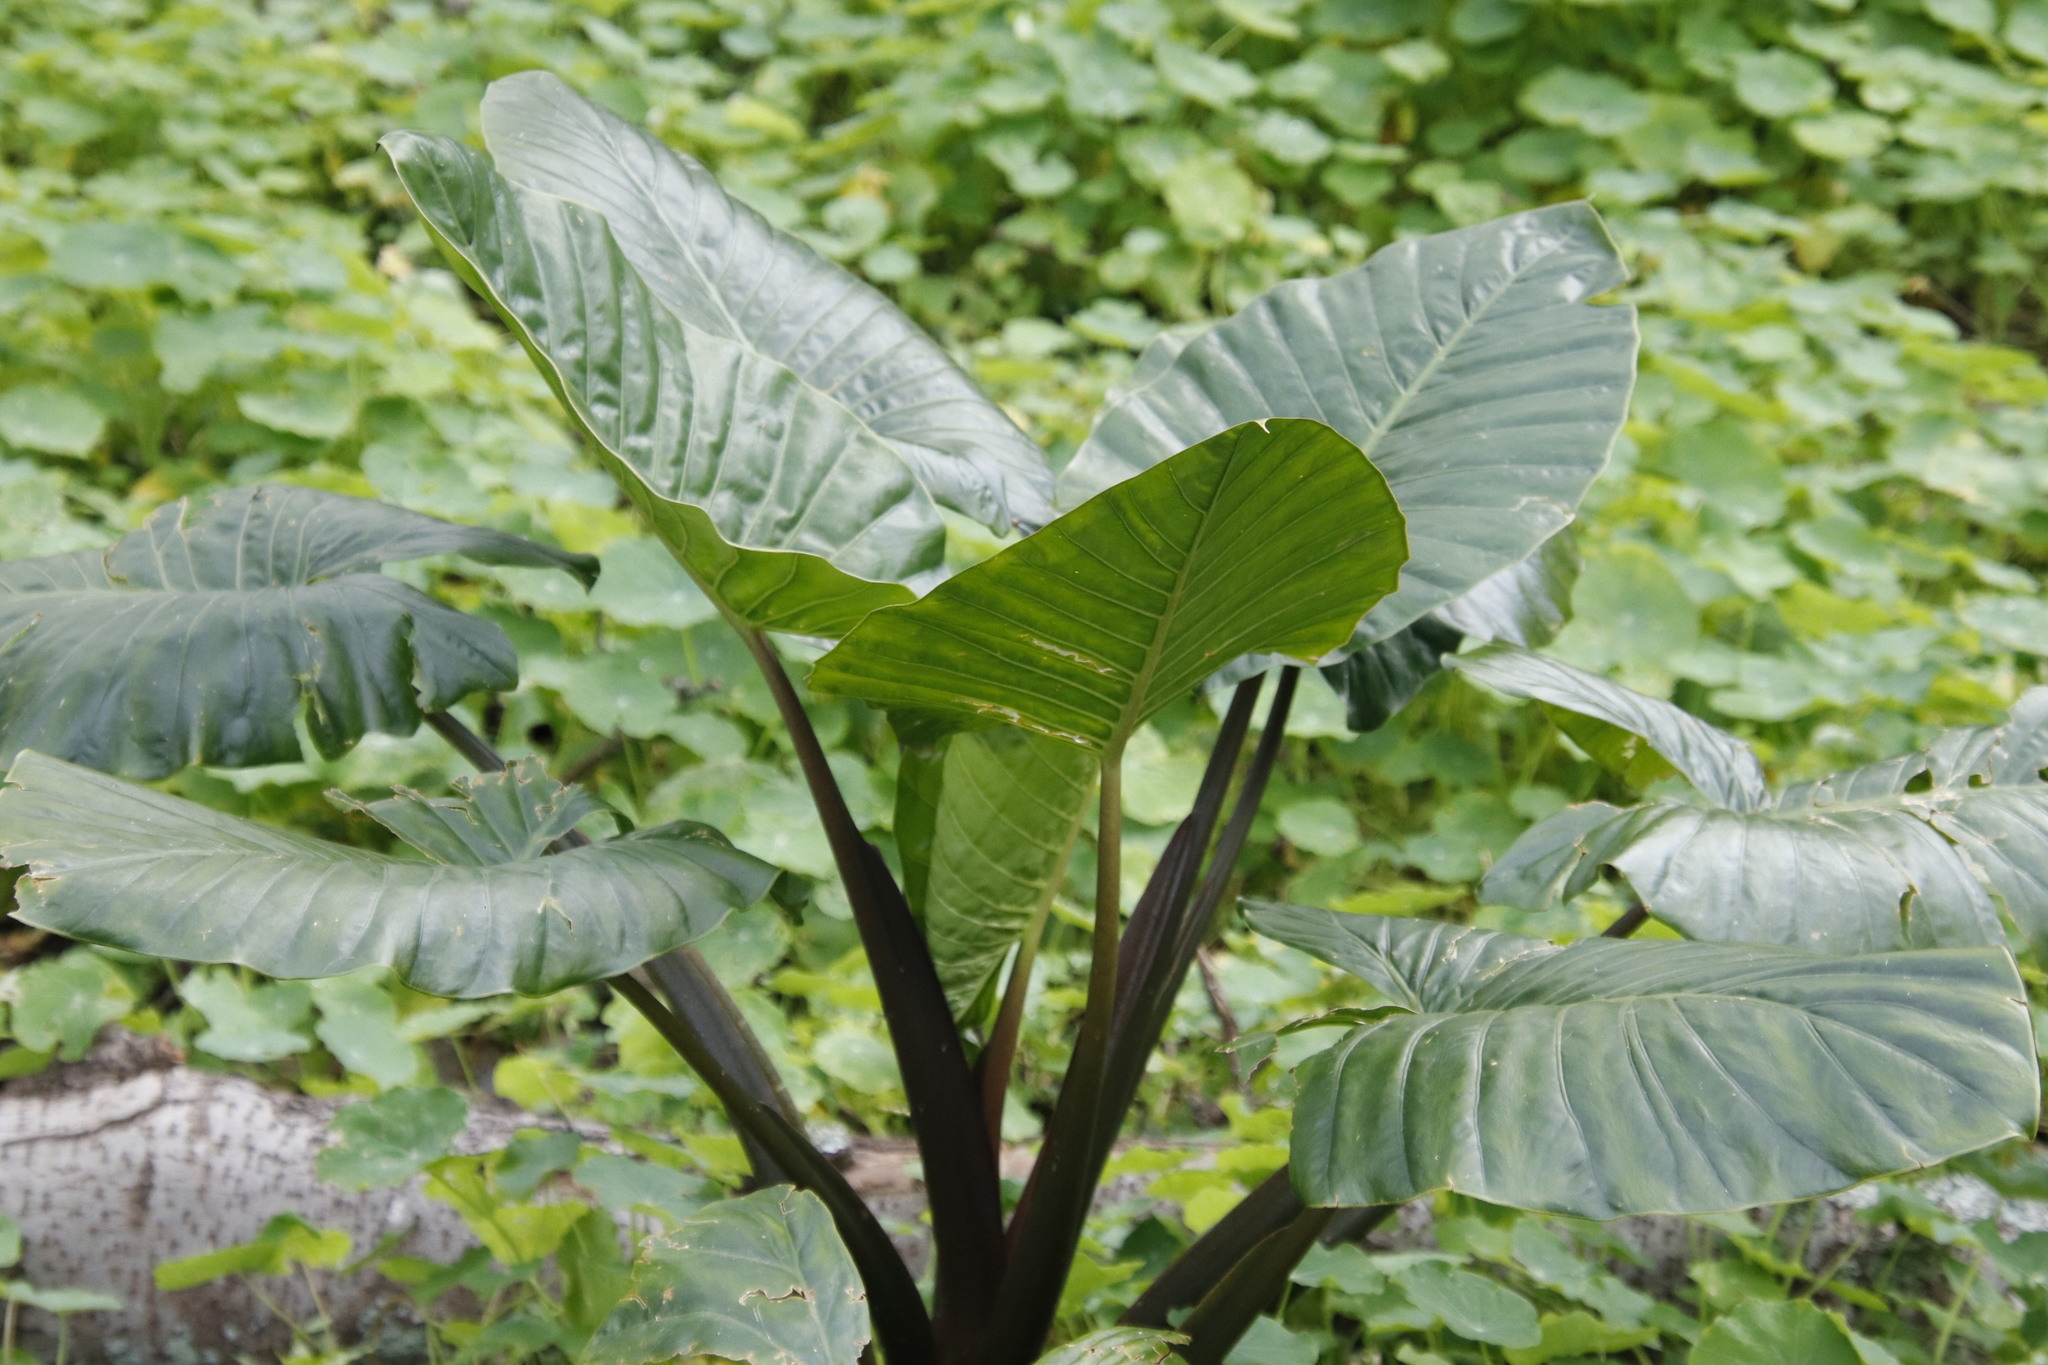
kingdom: Plantae
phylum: Tracheophyta
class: Liliopsida
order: Alismatales
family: Araceae
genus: Alocasia
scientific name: Alocasia macrorrhizos
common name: Giant taro
